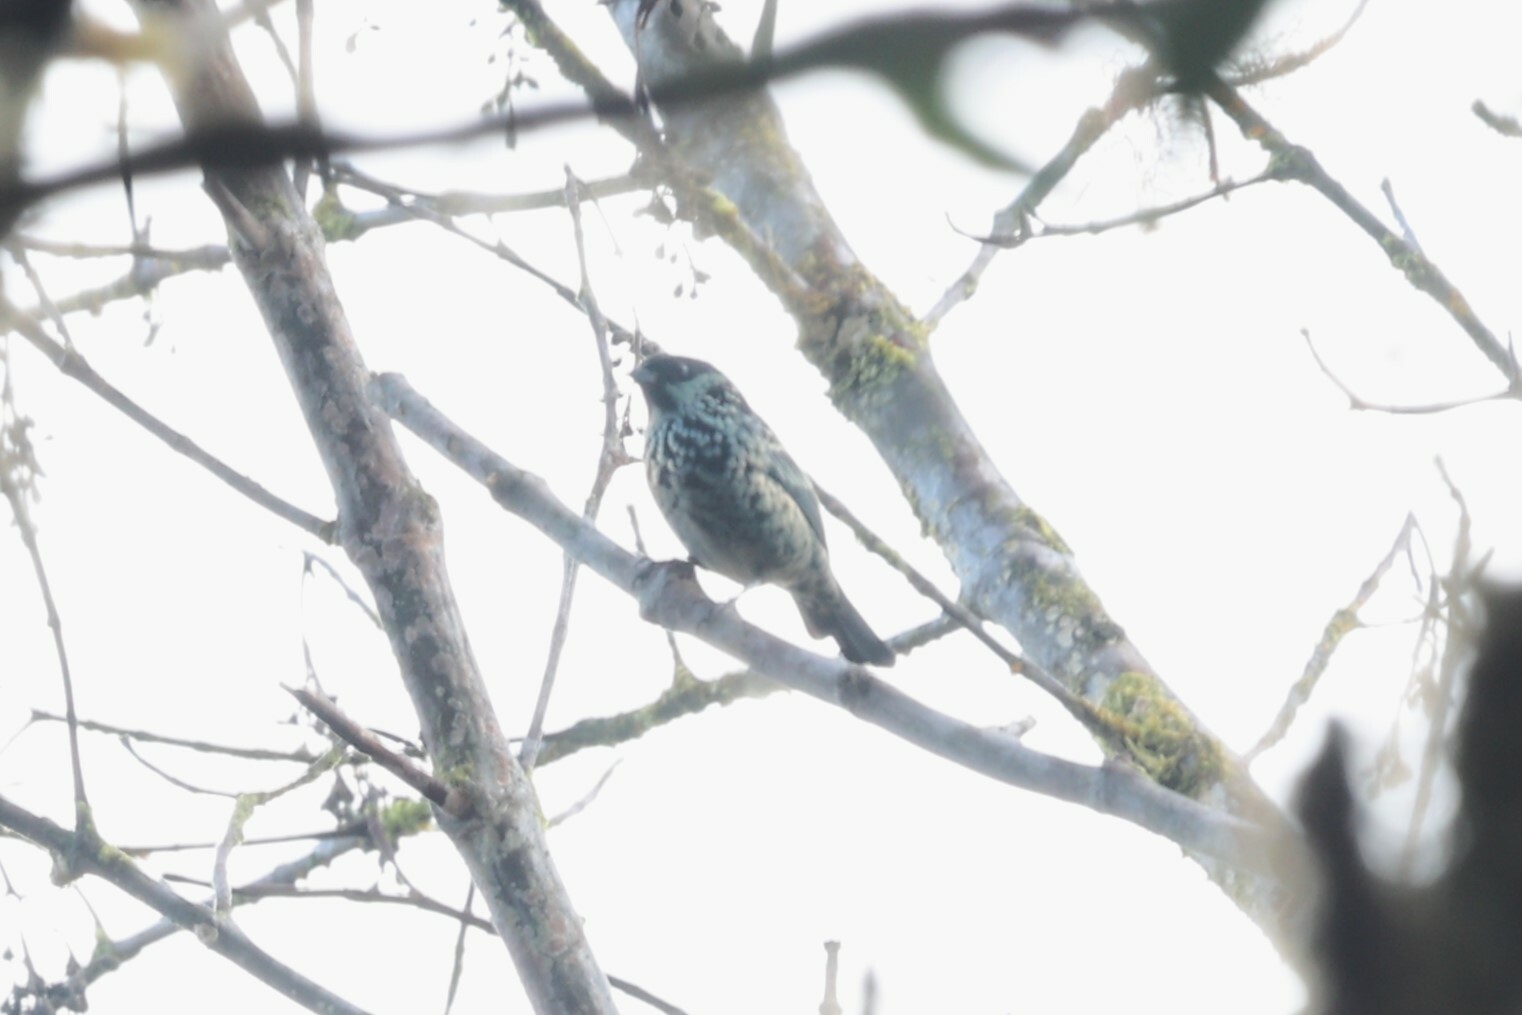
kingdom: Animalia
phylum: Chordata
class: Aves
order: Passeriformes
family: Thraupidae
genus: Tangara
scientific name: Tangara nigroviridis
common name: Beryl-spangled tanager
